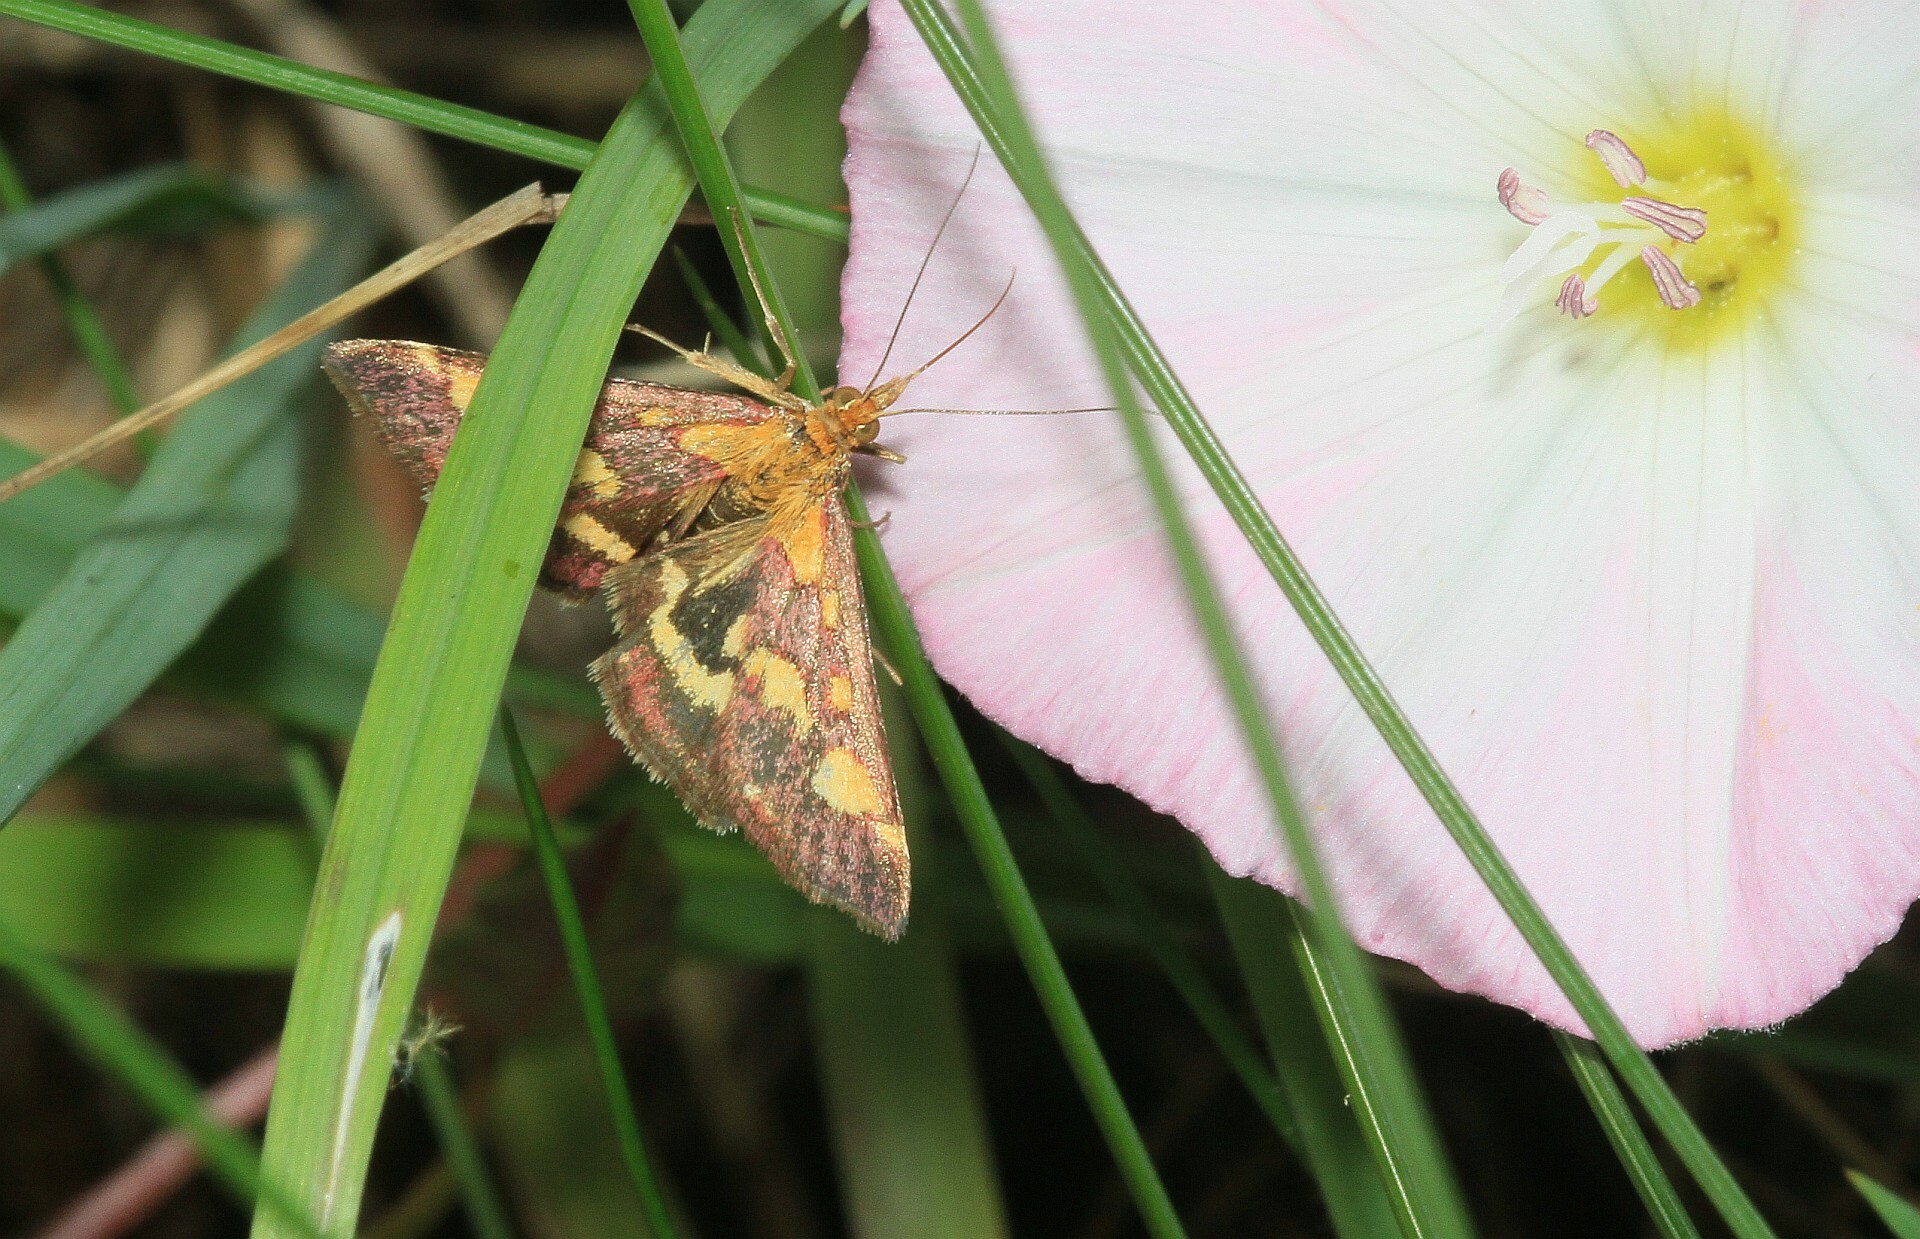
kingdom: Animalia
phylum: Arthropoda
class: Insecta
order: Lepidoptera
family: Crambidae
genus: Pyrausta
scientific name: Pyrausta purpuralis
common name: Common purple & gold
